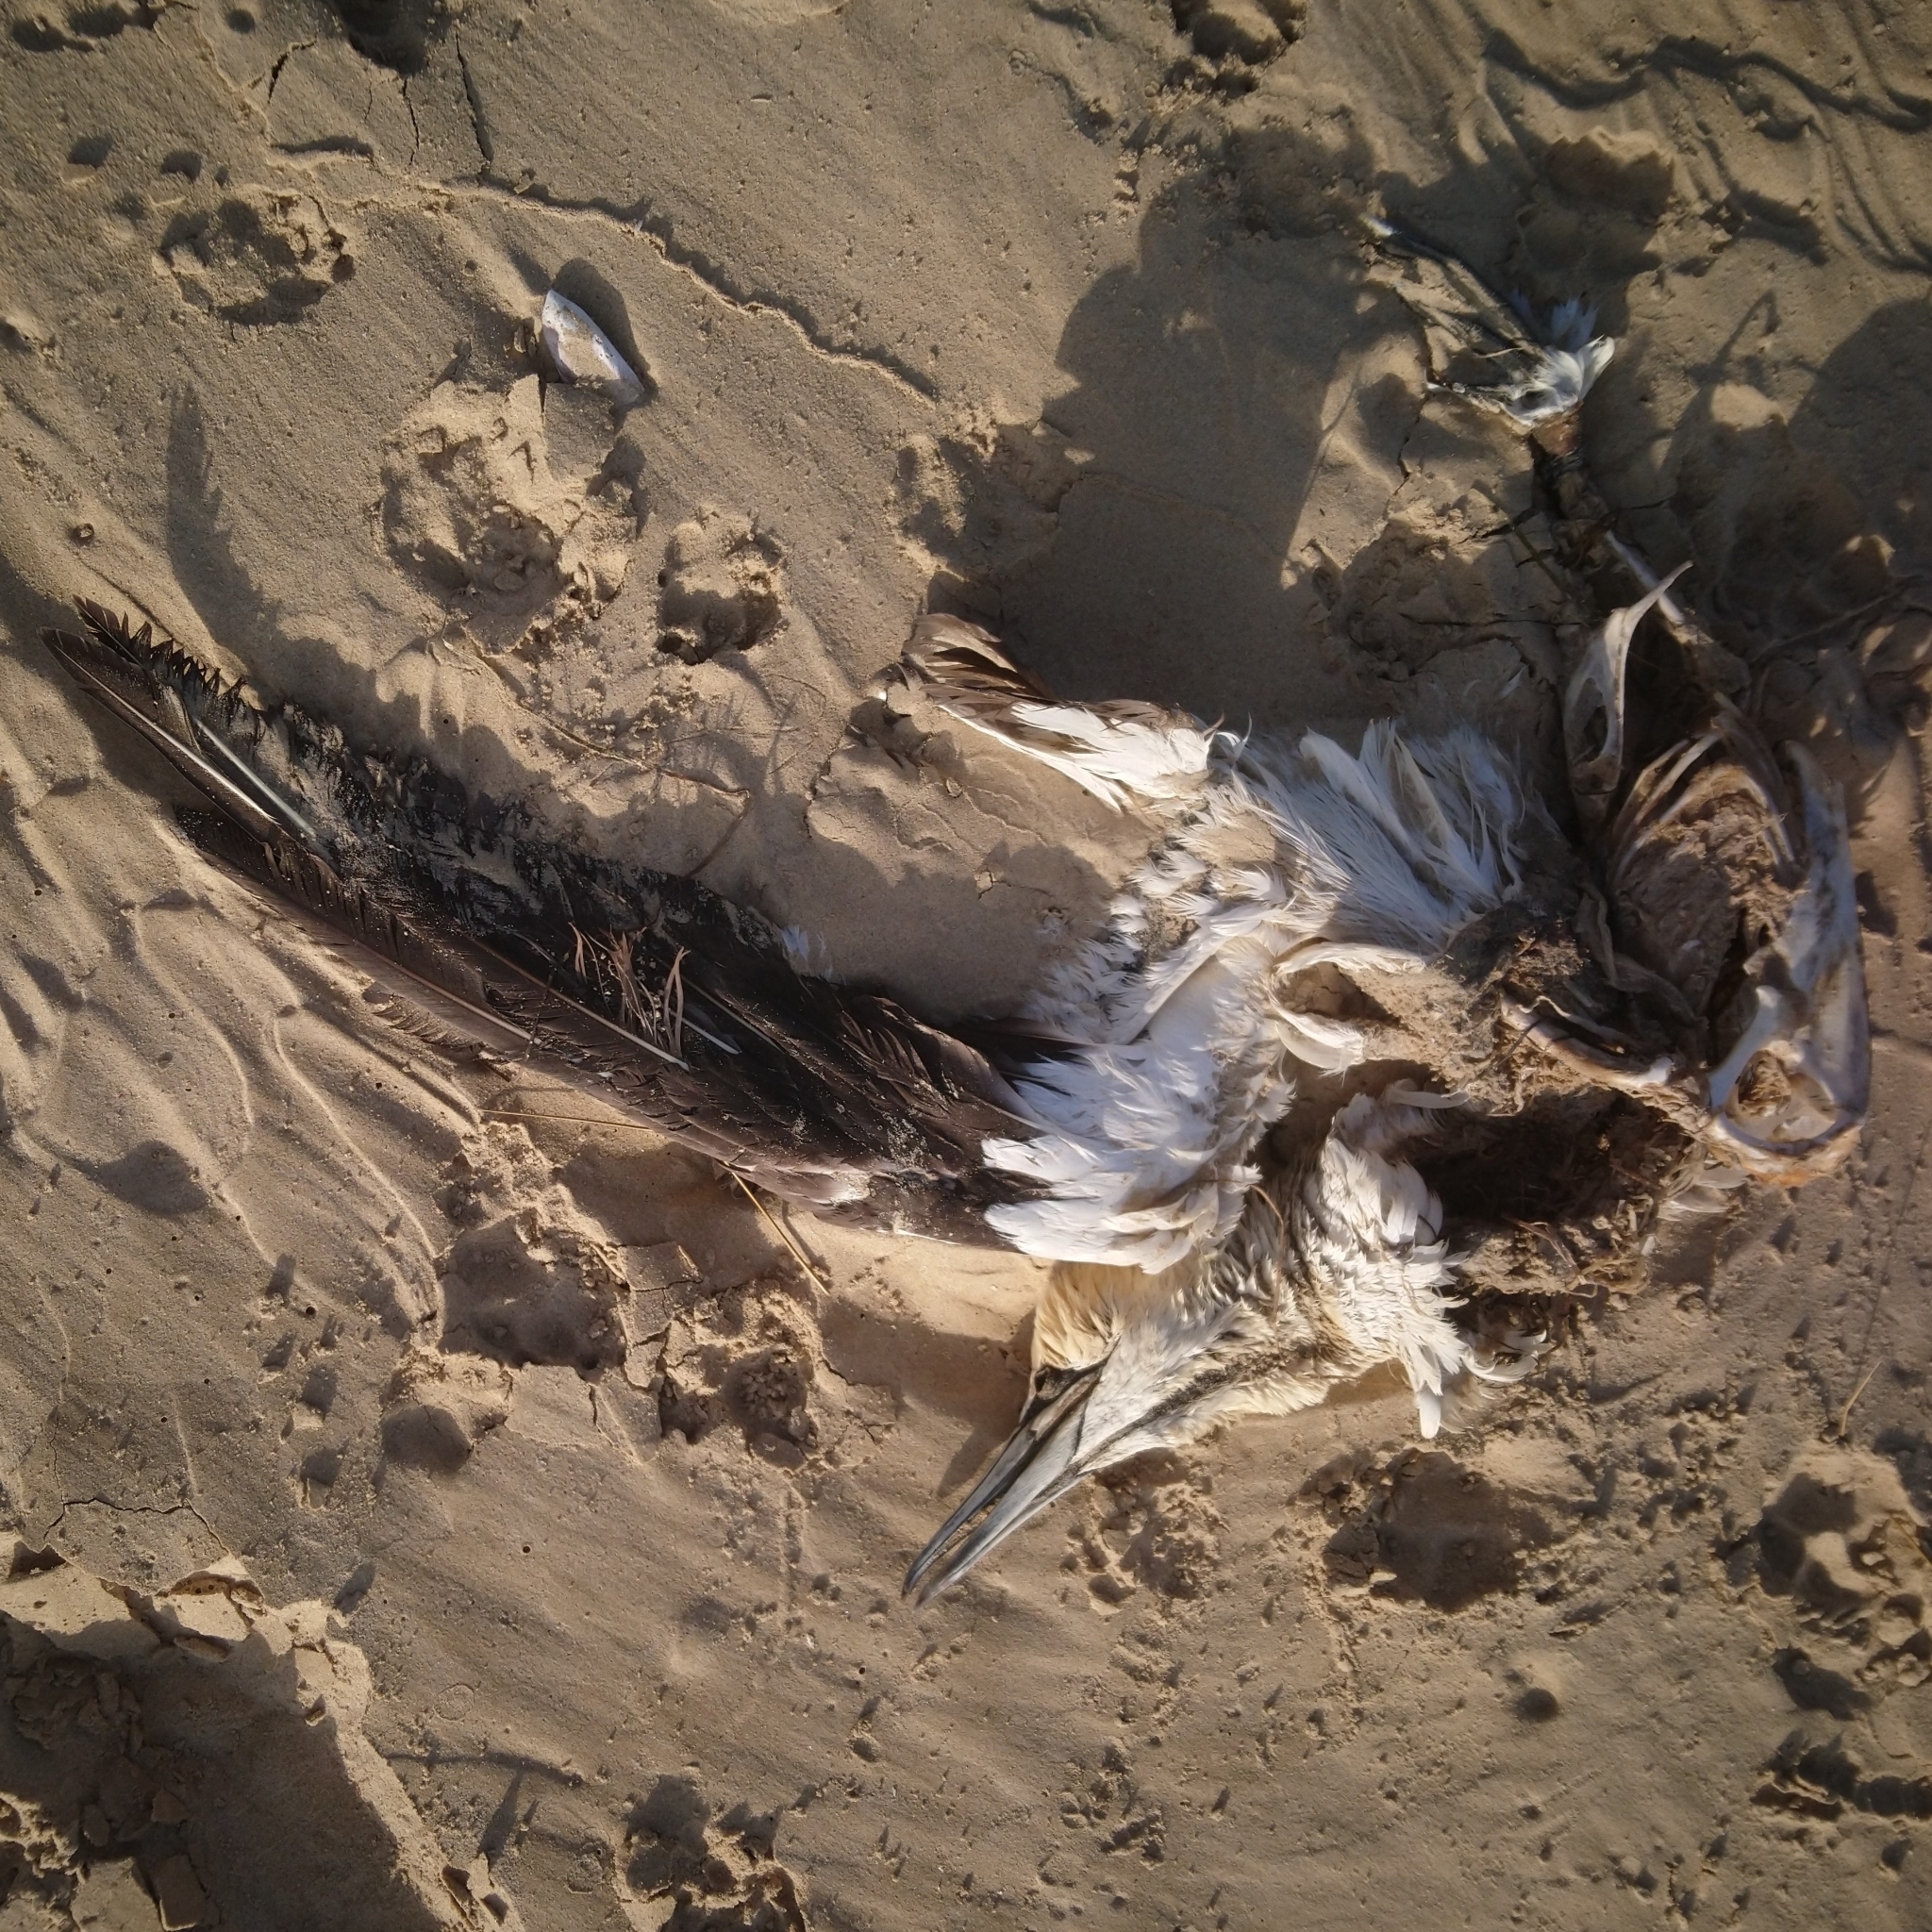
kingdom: Animalia
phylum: Chordata
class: Aves
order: Suliformes
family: Sulidae
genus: Morus
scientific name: Morus capensis
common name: Cape gannet
